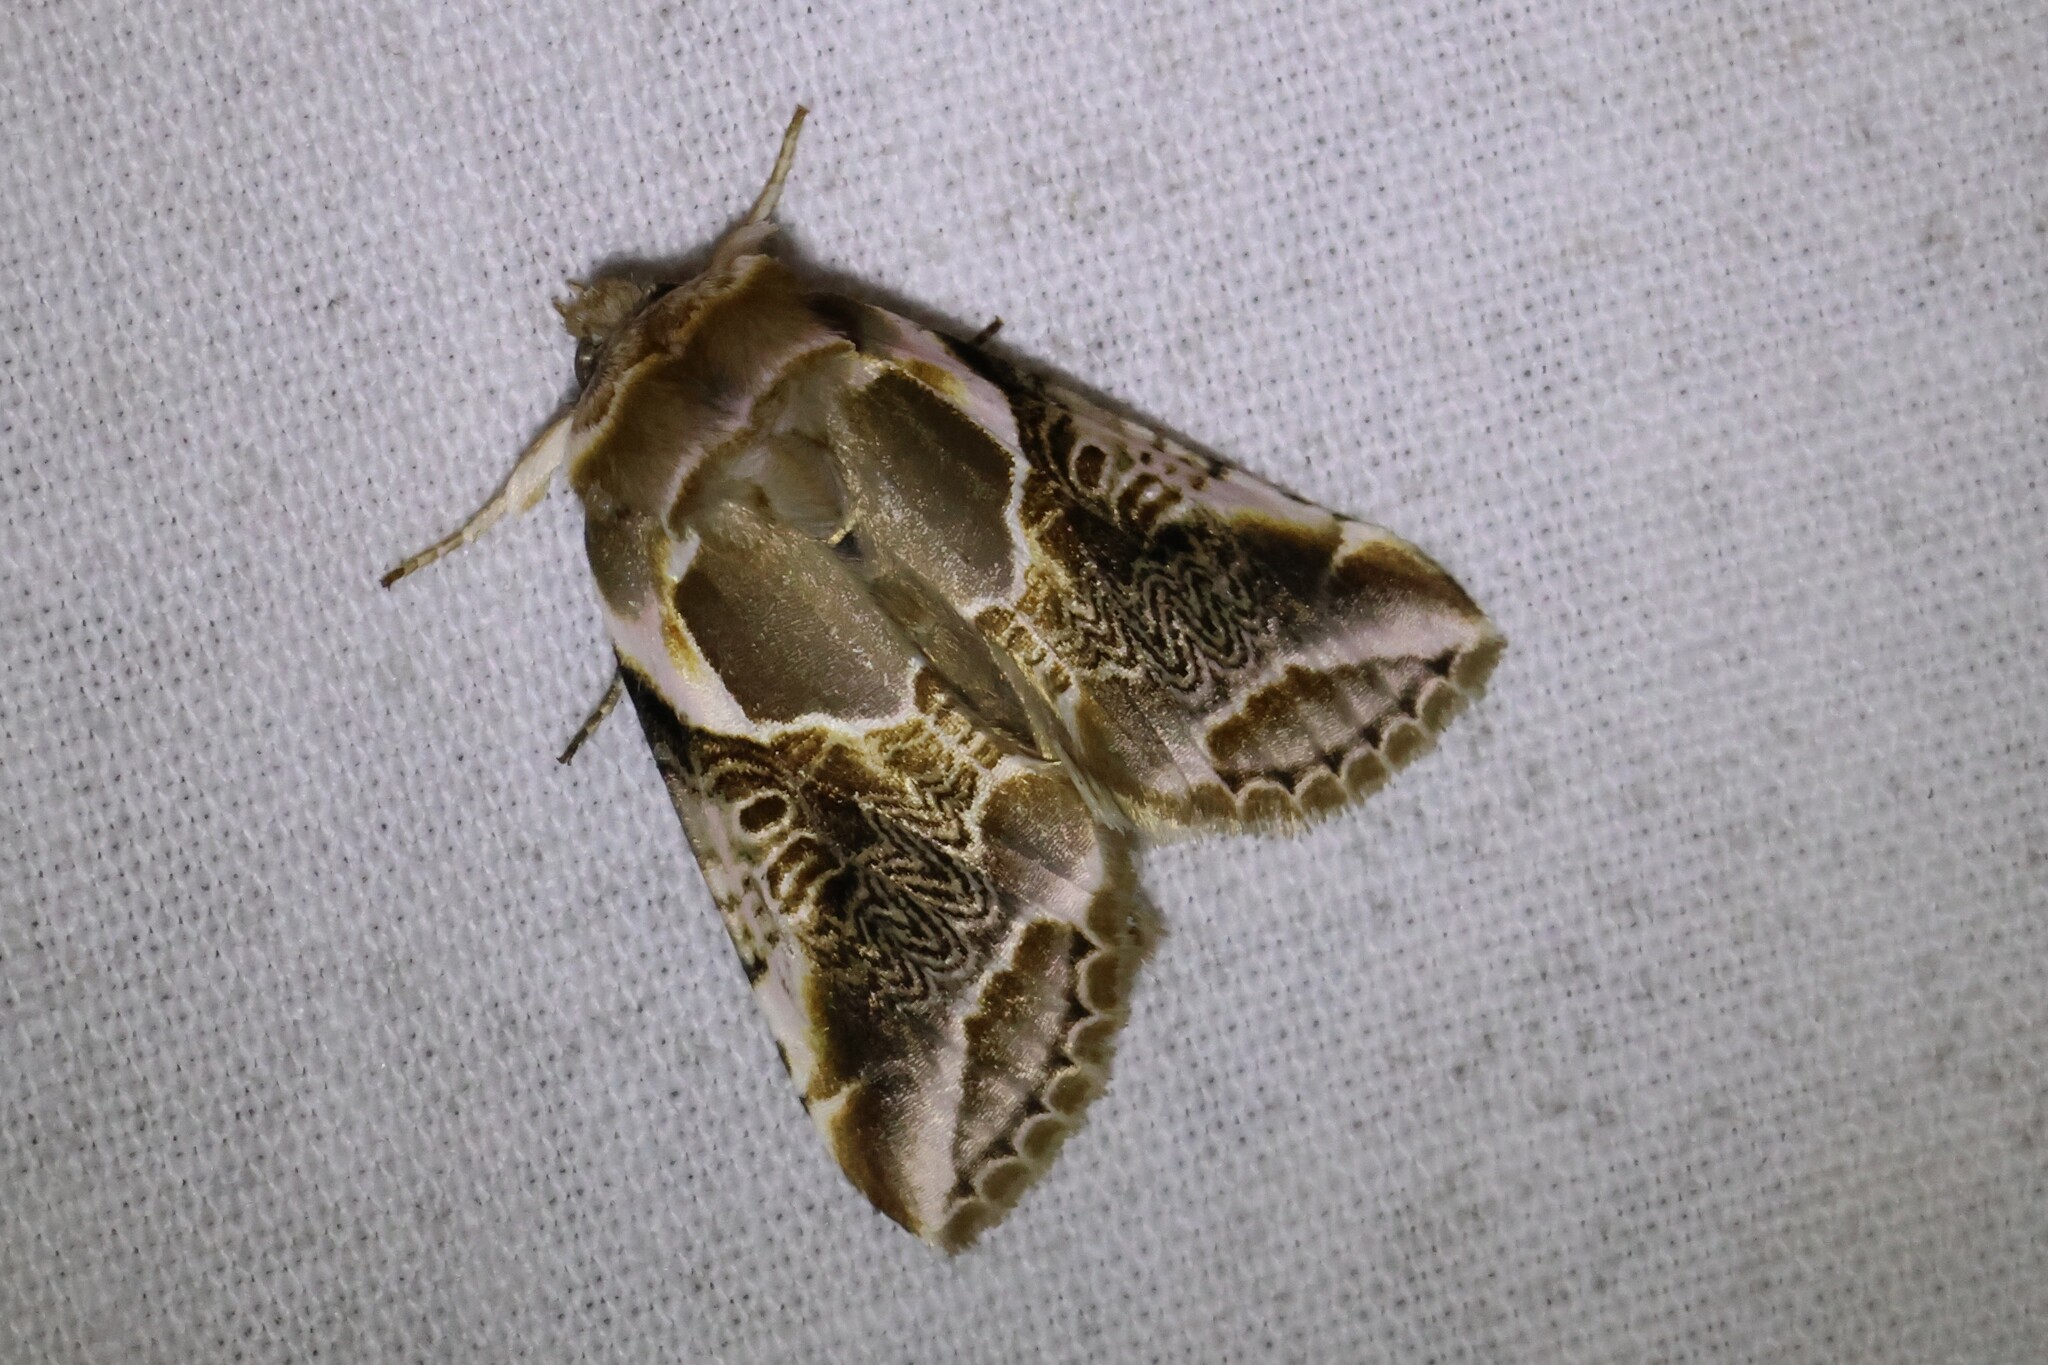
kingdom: Animalia
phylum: Arthropoda
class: Insecta
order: Lepidoptera
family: Drepanidae
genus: Habrosyne
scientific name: Habrosyne scripta
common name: Lettered habrosyne moth
